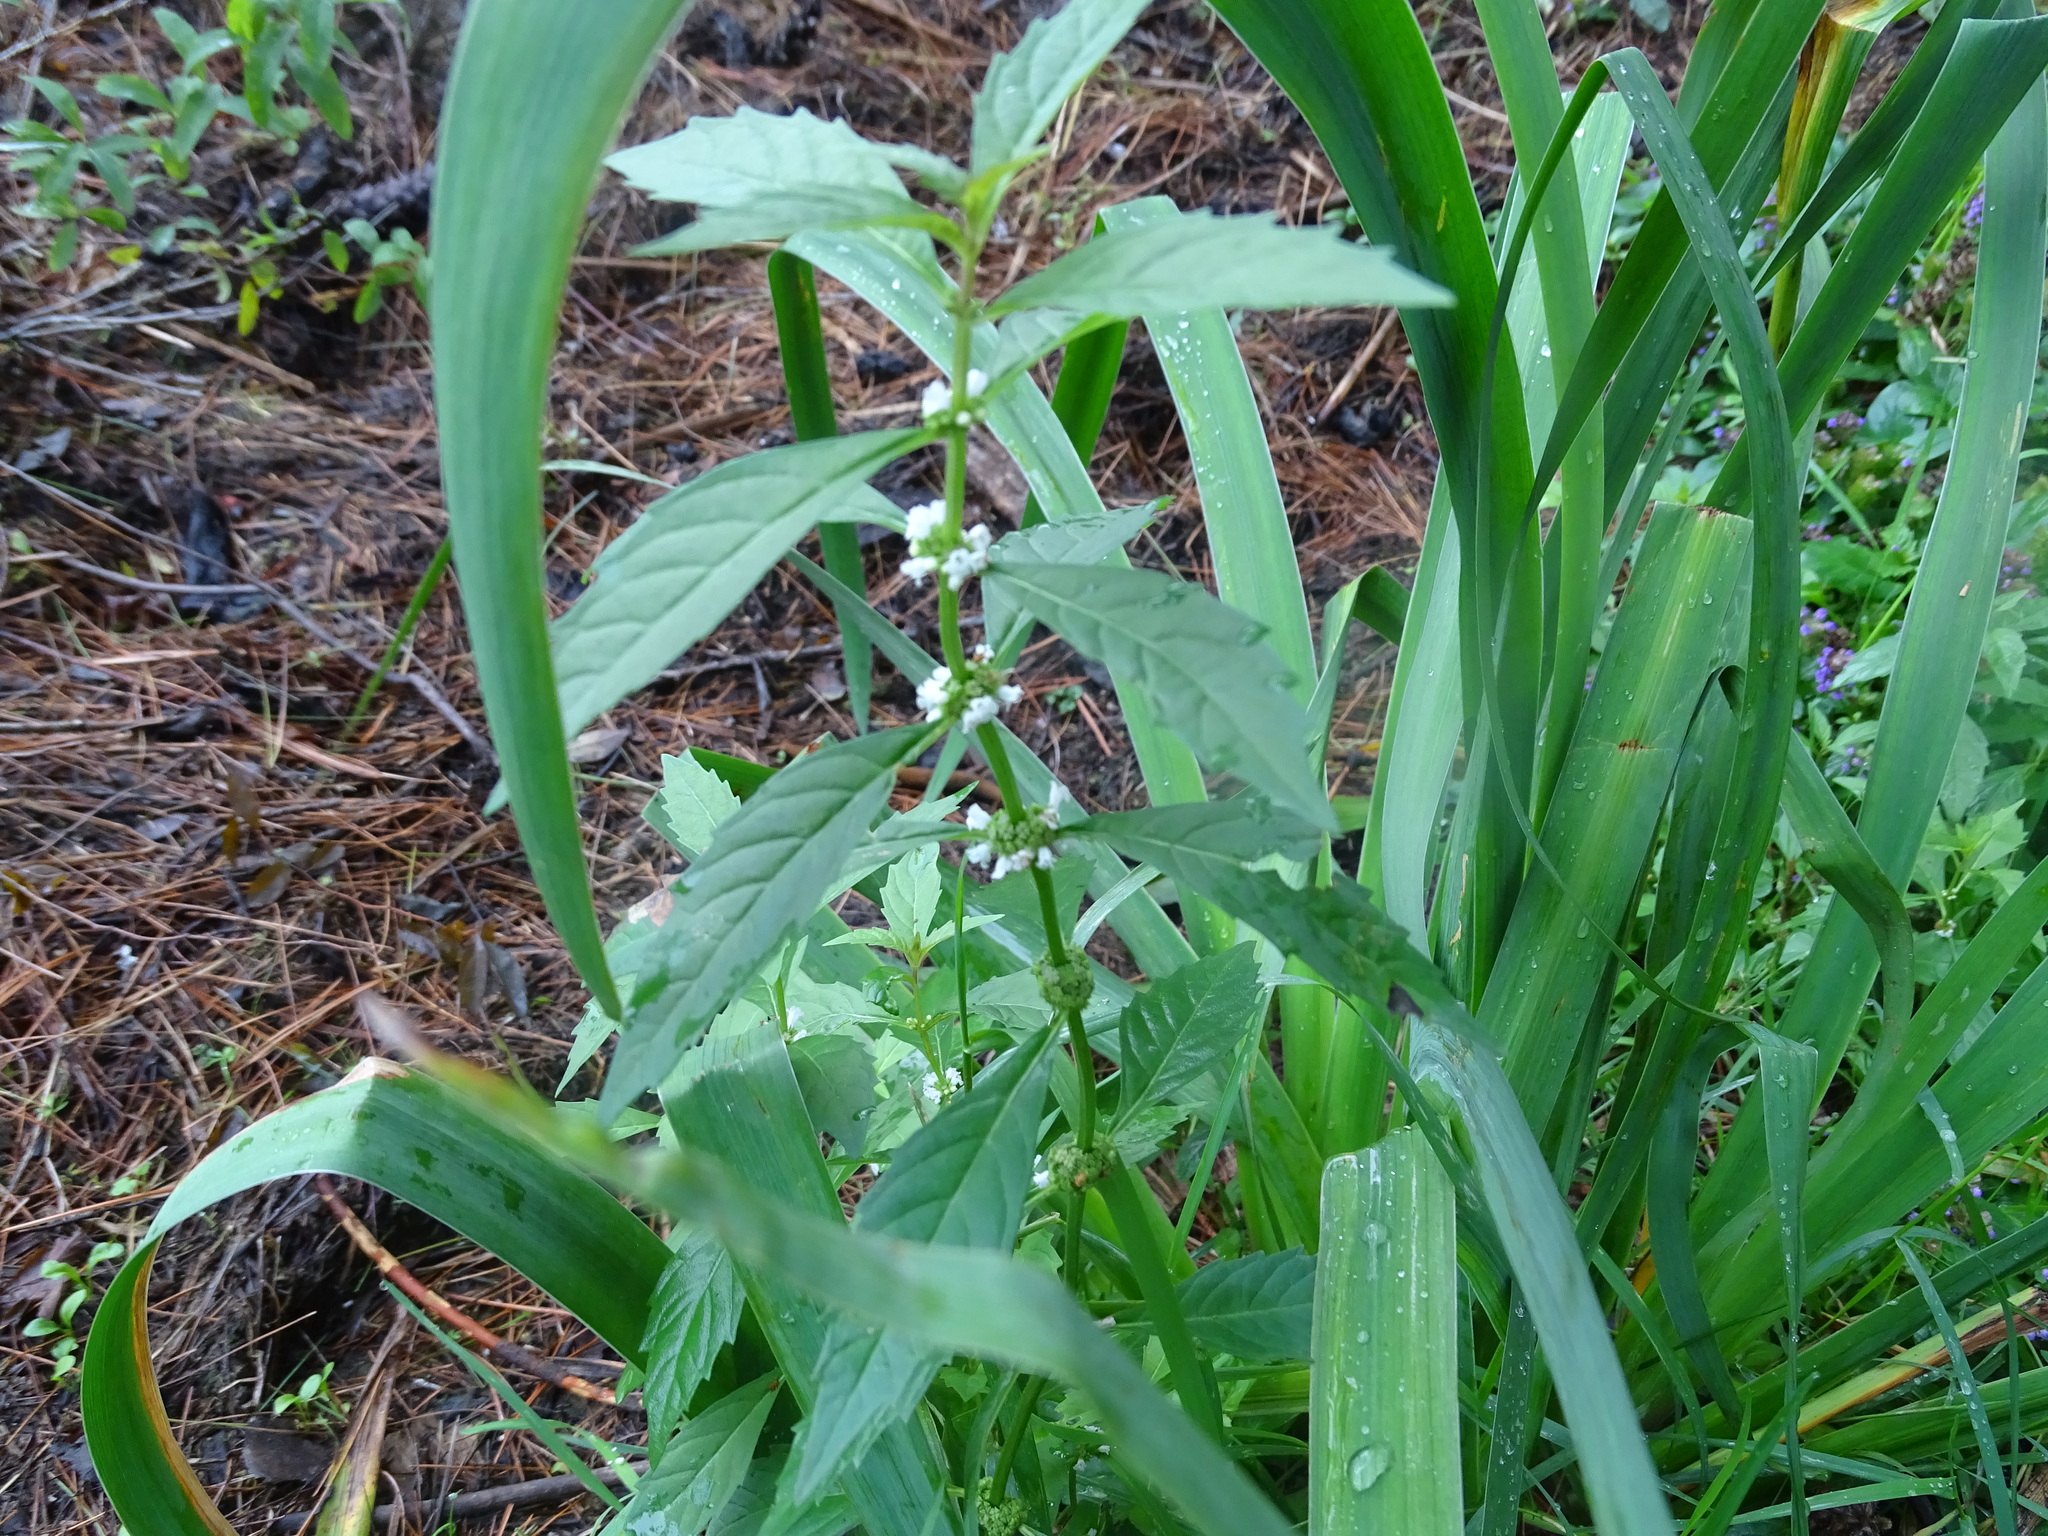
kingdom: Plantae
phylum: Tracheophyta
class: Magnoliopsida
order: Lamiales
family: Lamiaceae
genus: Lycopus
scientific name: Lycopus uniflorus
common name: Northern bugleweed
